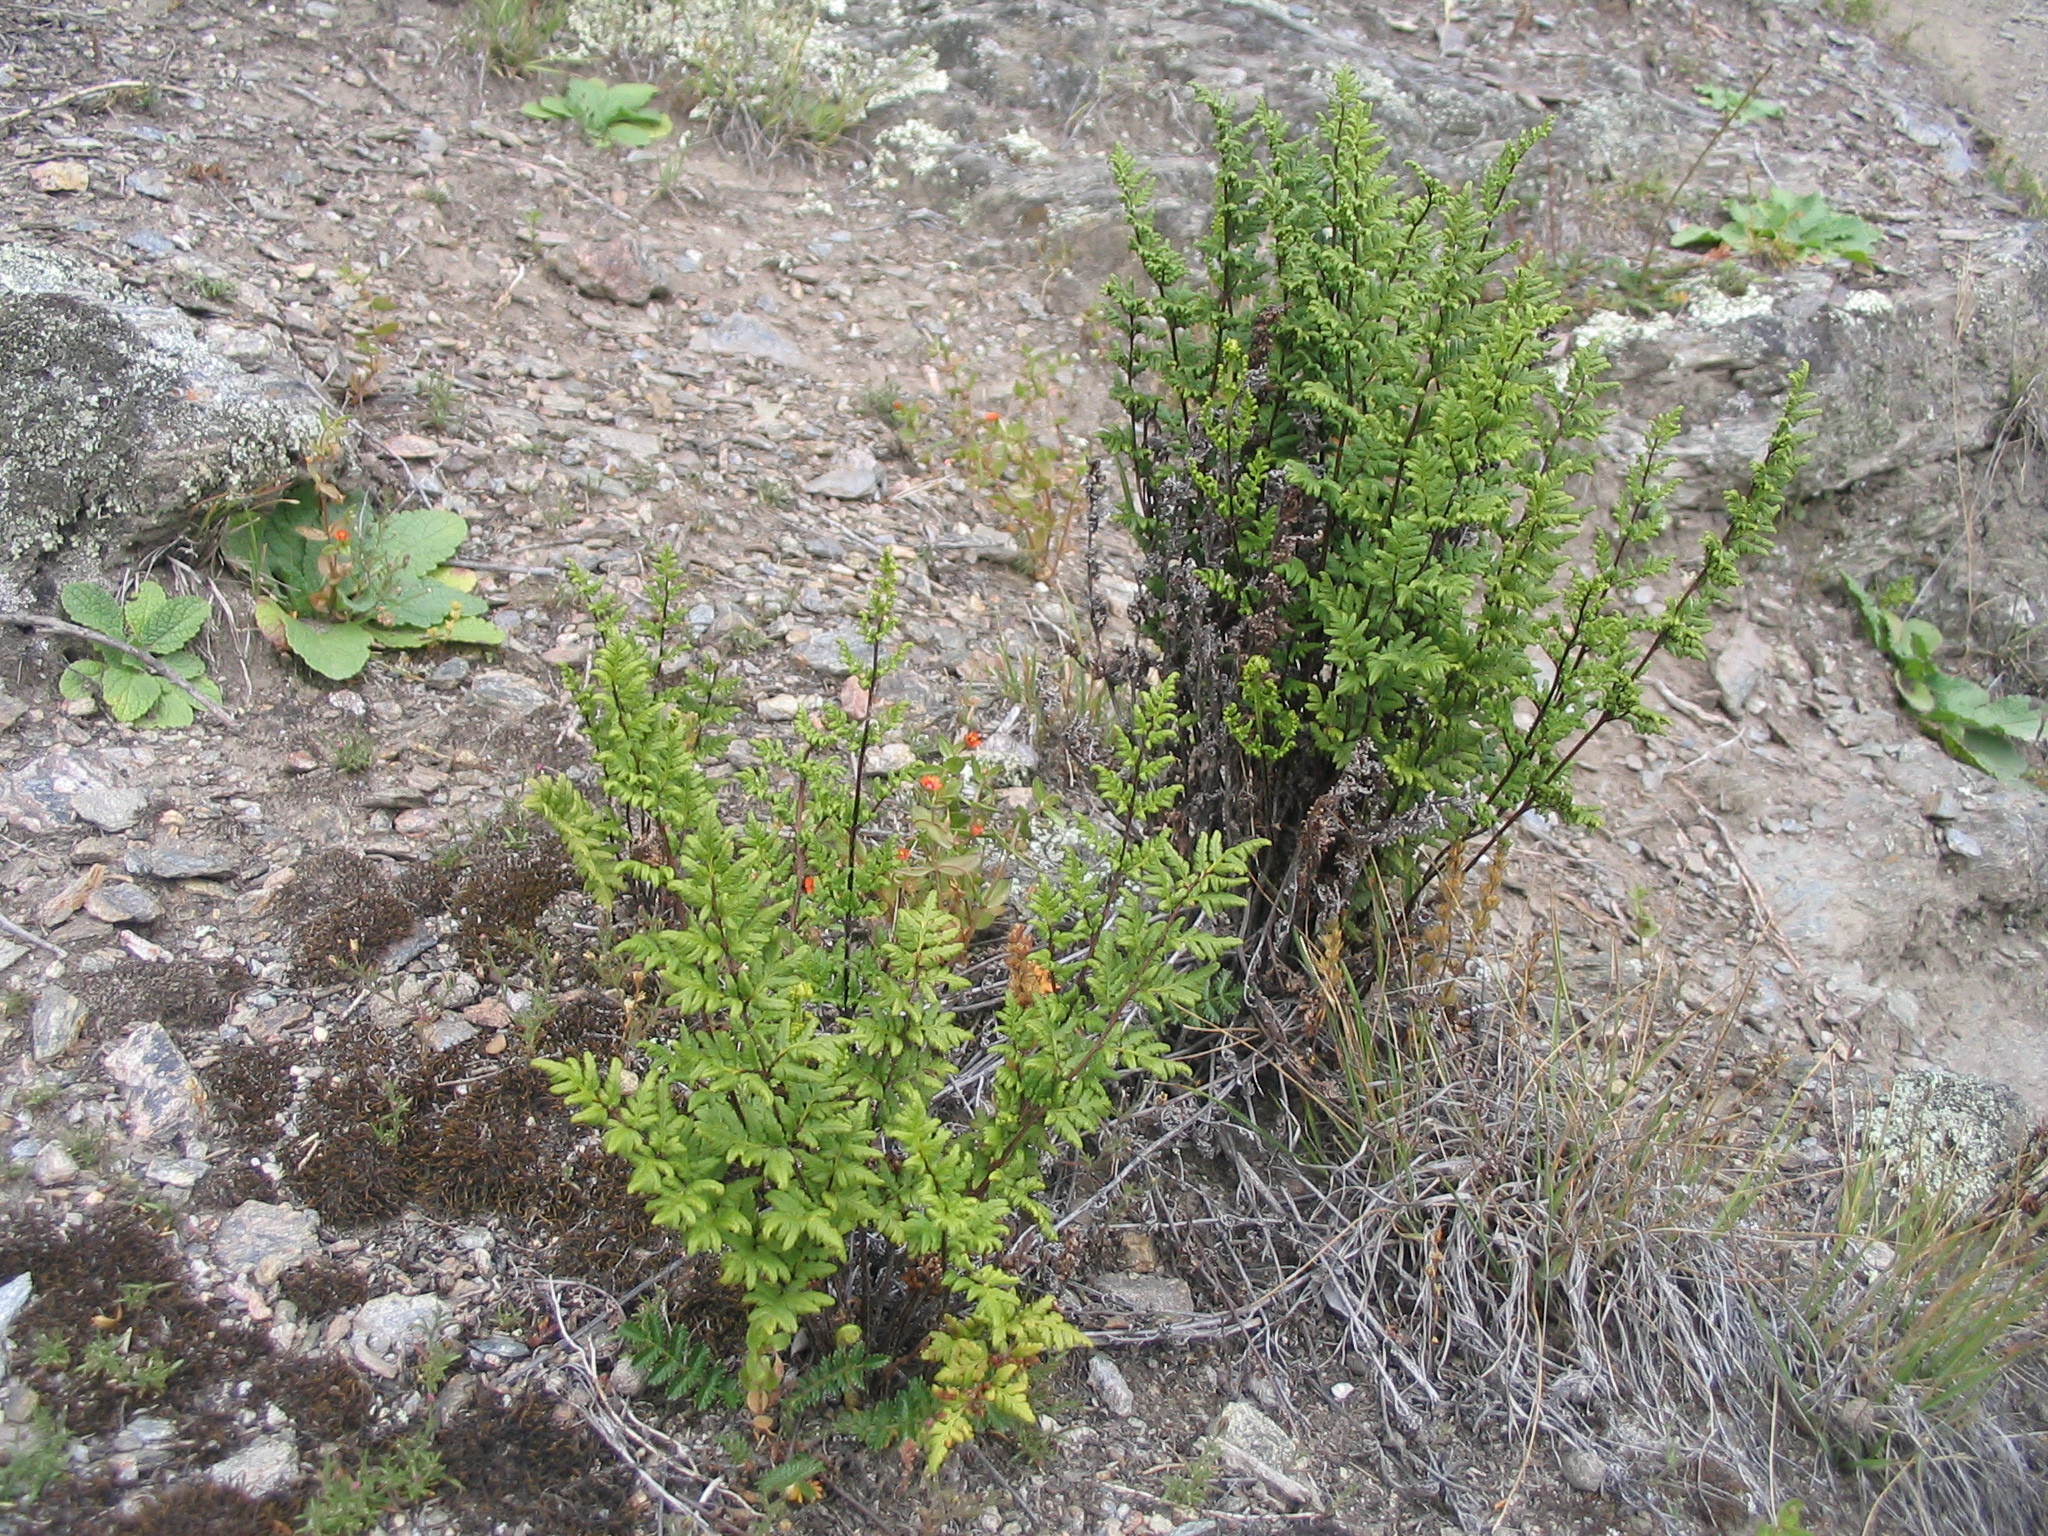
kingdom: Plantae
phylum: Tracheophyta
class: Polypodiopsida
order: Polypodiales
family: Pteridaceae
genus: Cheilanthes
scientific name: Cheilanthes sieberi
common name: Mulga fern
